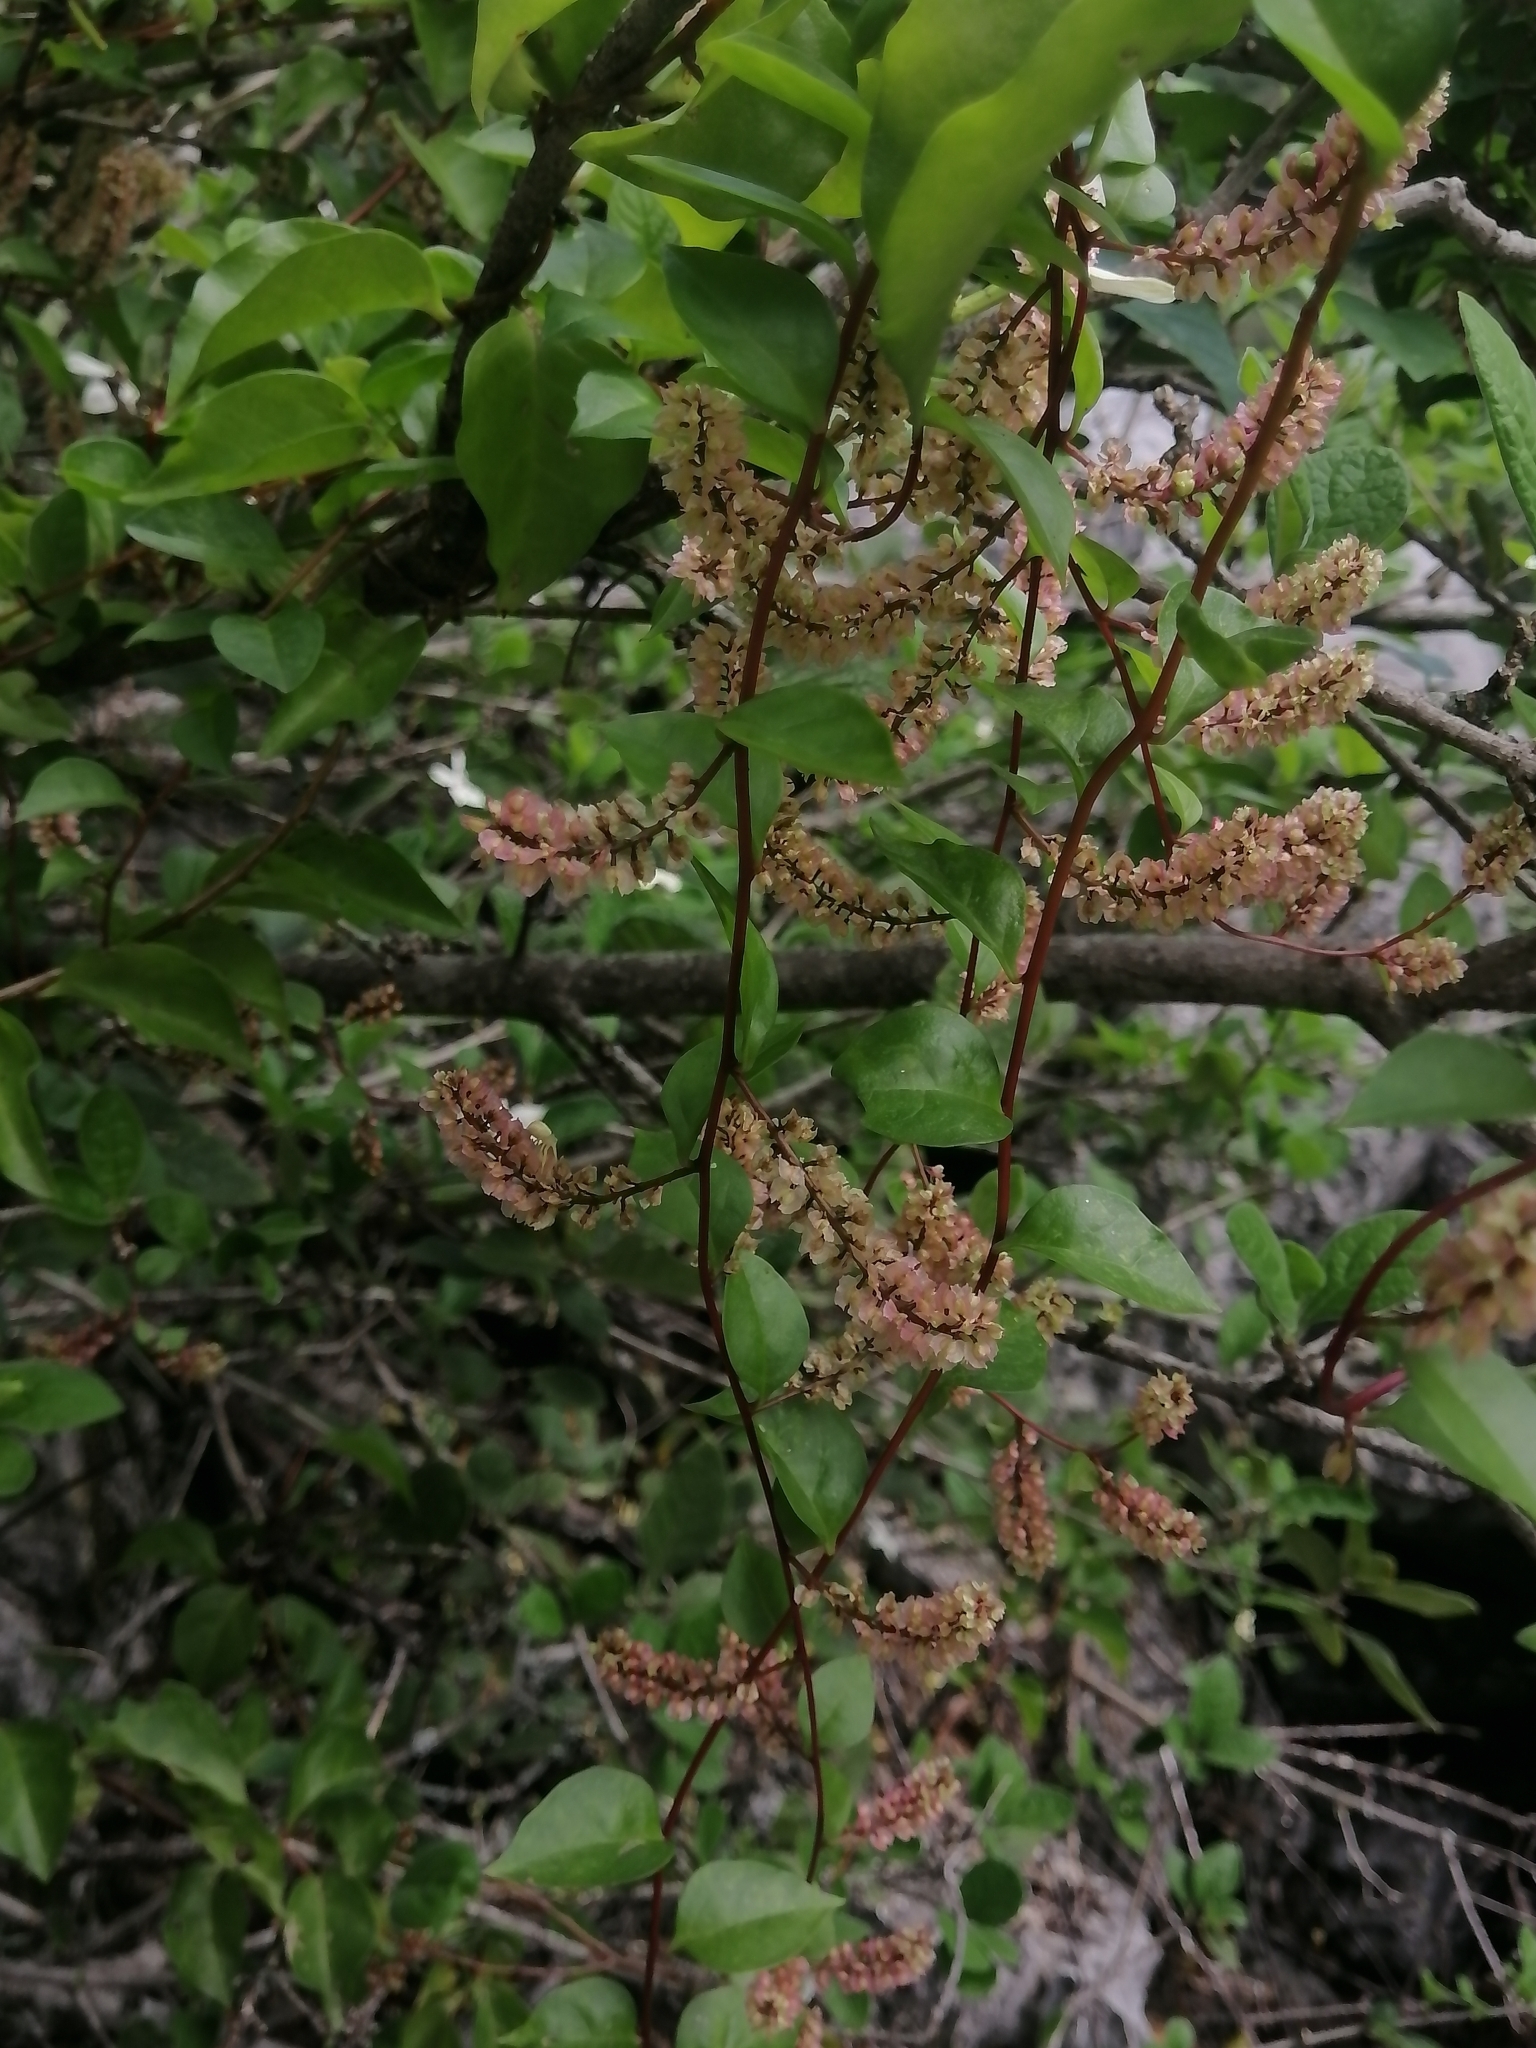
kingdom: Plantae
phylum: Tracheophyta
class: Magnoliopsida
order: Caryophyllales
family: Basellaceae
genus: Anredera
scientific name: Anredera vesicaria
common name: Sacasile
